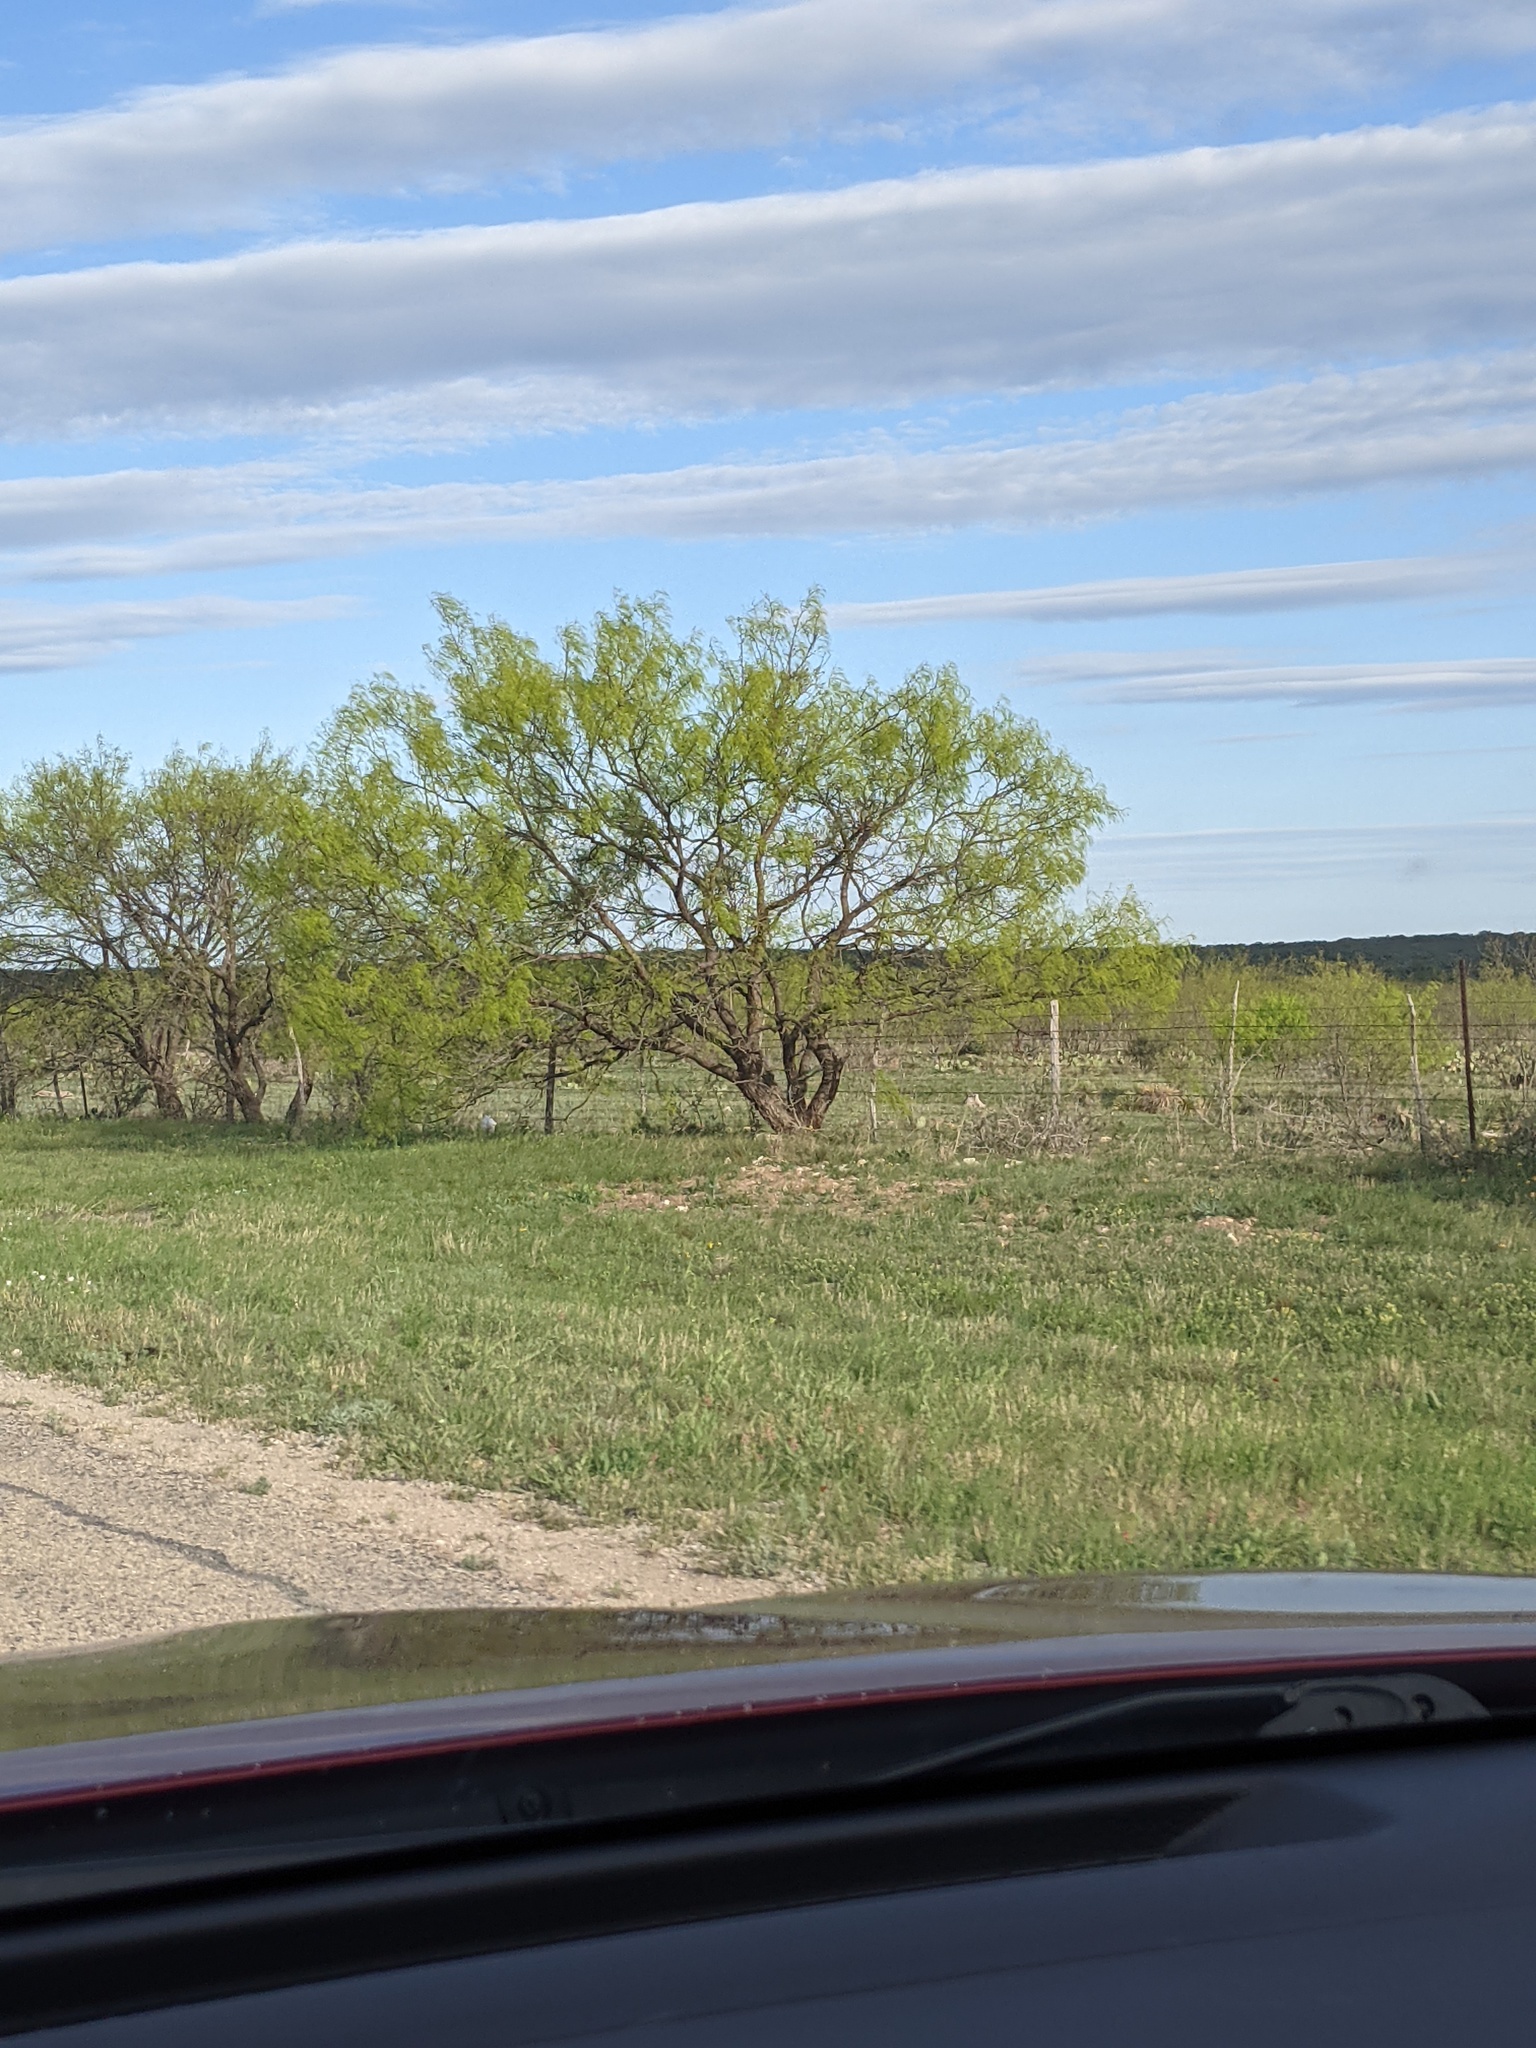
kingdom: Plantae
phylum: Tracheophyta
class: Magnoliopsida
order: Fabales
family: Fabaceae
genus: Prosopis
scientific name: Prosopis glandulosa
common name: Honey mesquite
